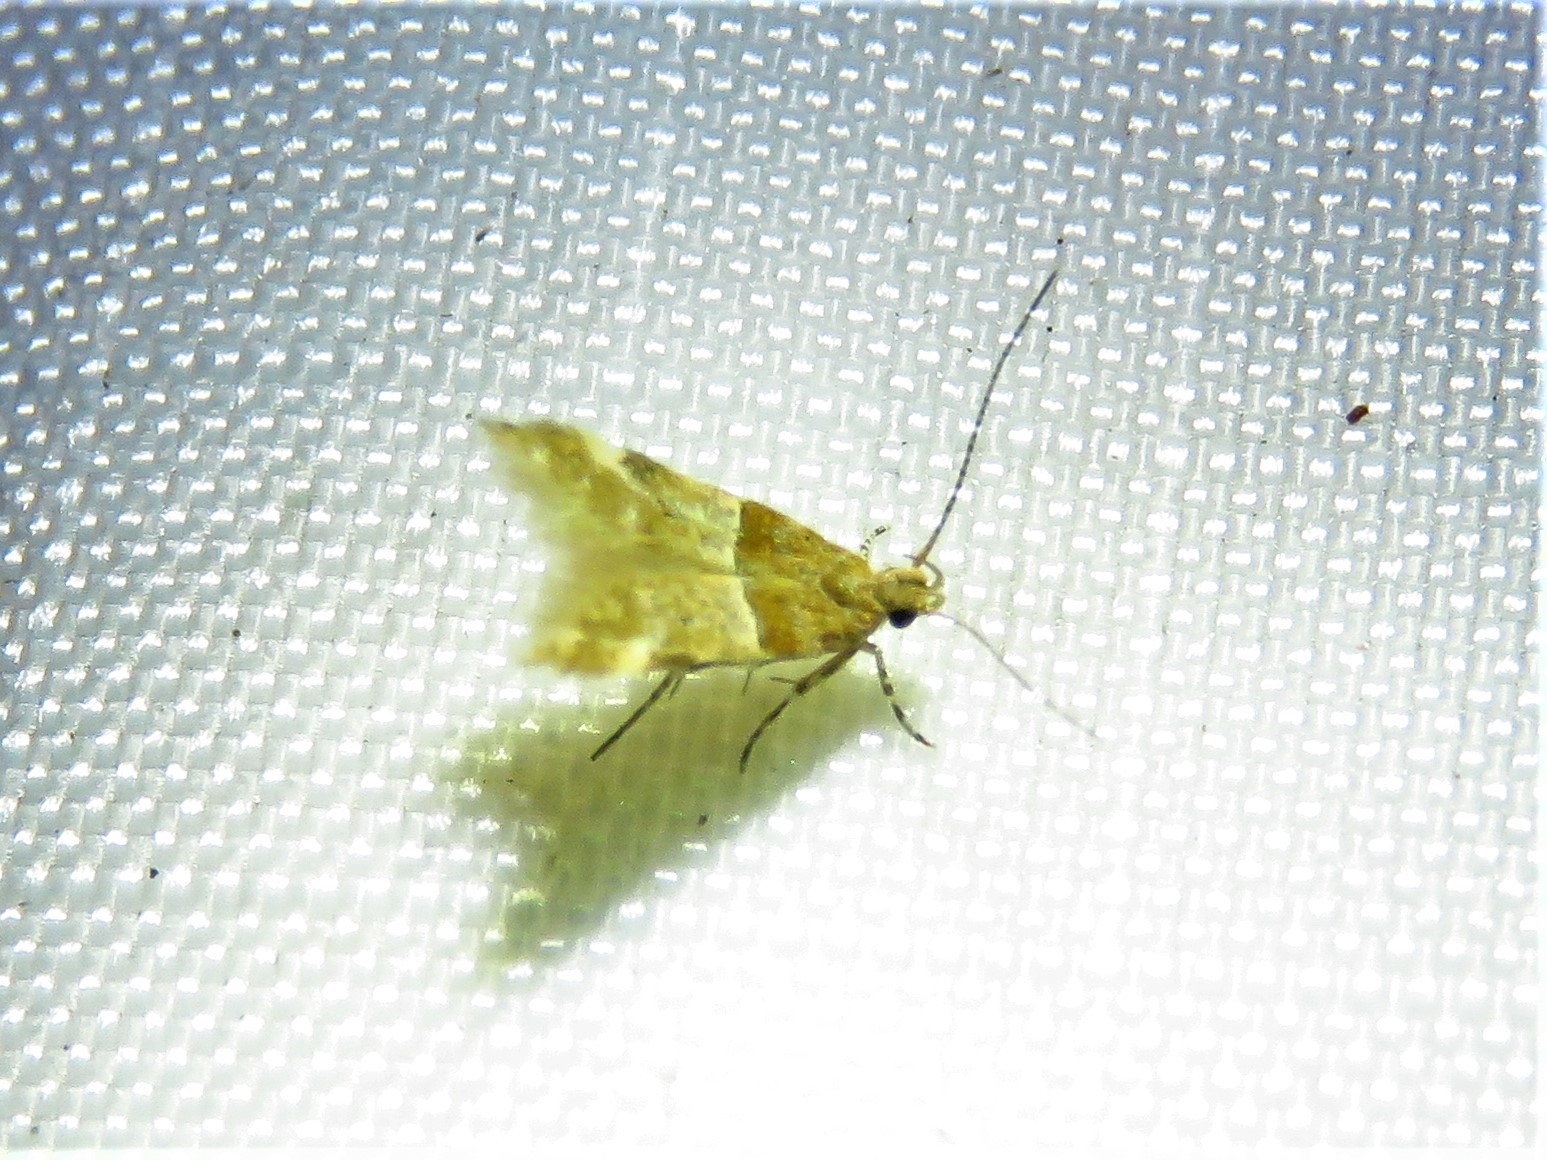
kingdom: Animalia
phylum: Arthropoda
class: Insecta
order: Lepidoptera
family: Gelechiidae
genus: Theisoa
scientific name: Theisoa constrictella
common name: Constricted twirler
